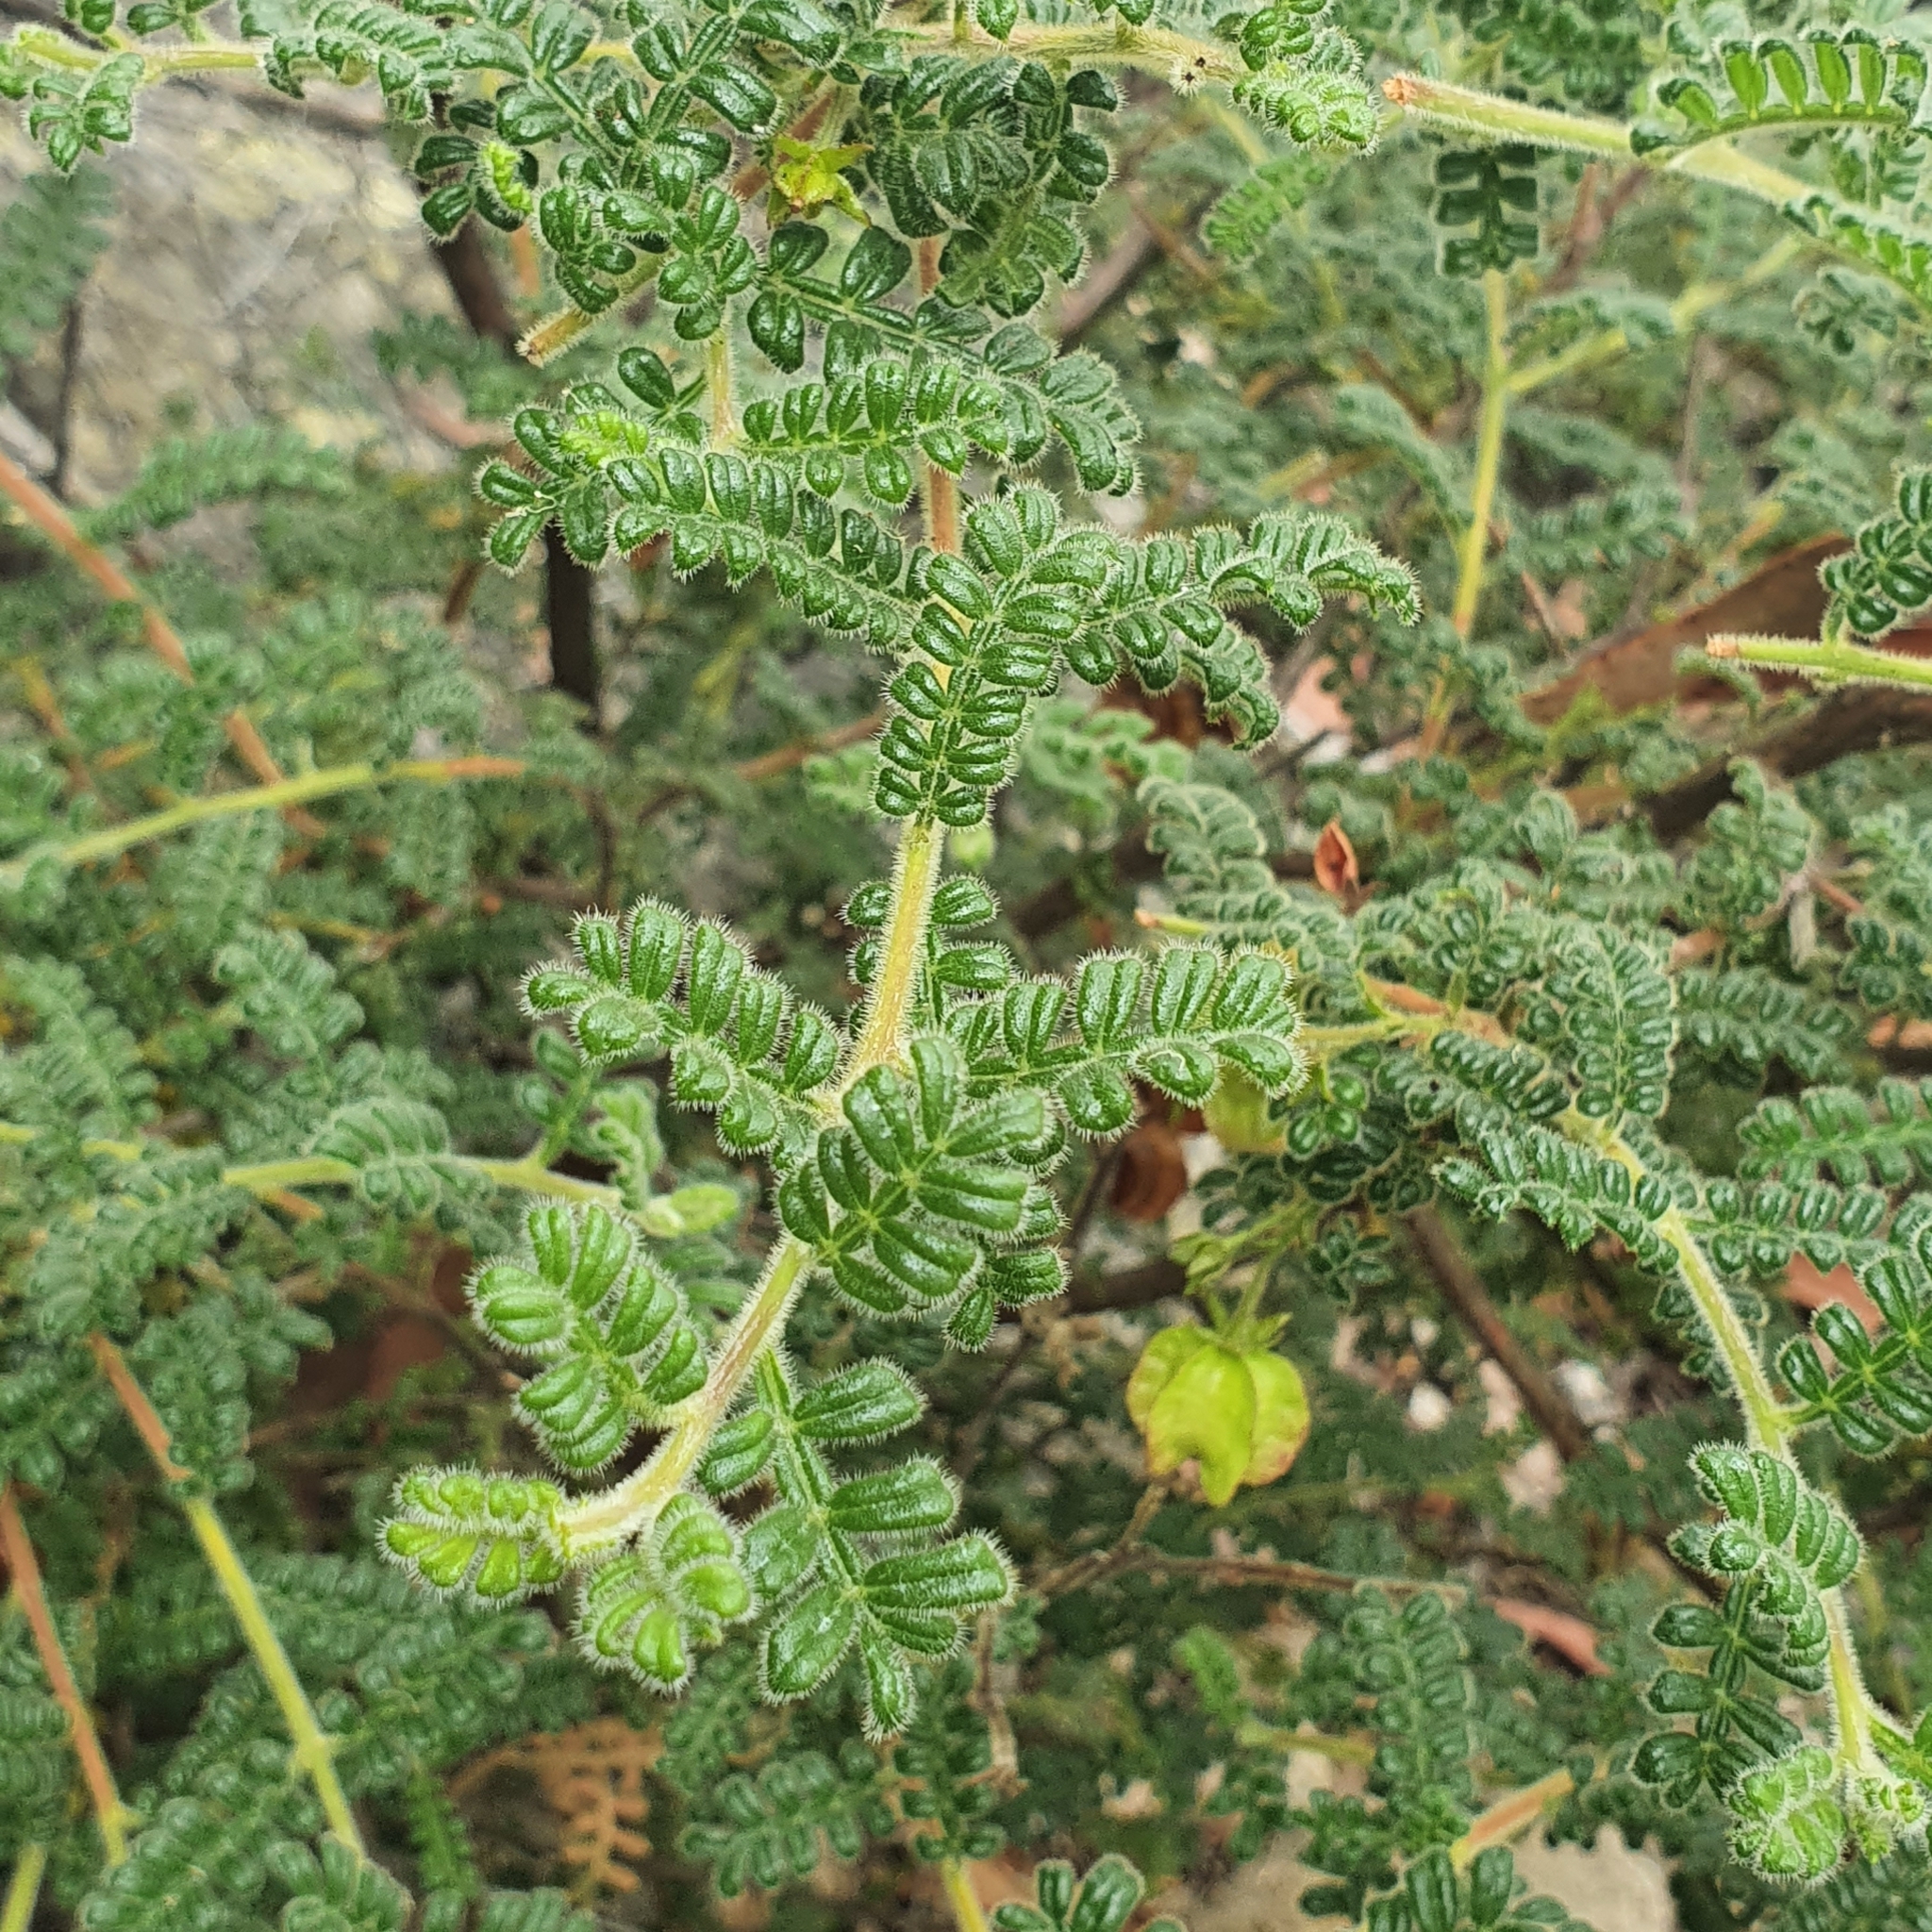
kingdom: Plantae
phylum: Tracheophyta
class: Magnoliopsida
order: Sapindales
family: Sapindaceae
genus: Dodonaea
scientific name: Dodonaea pinnata
